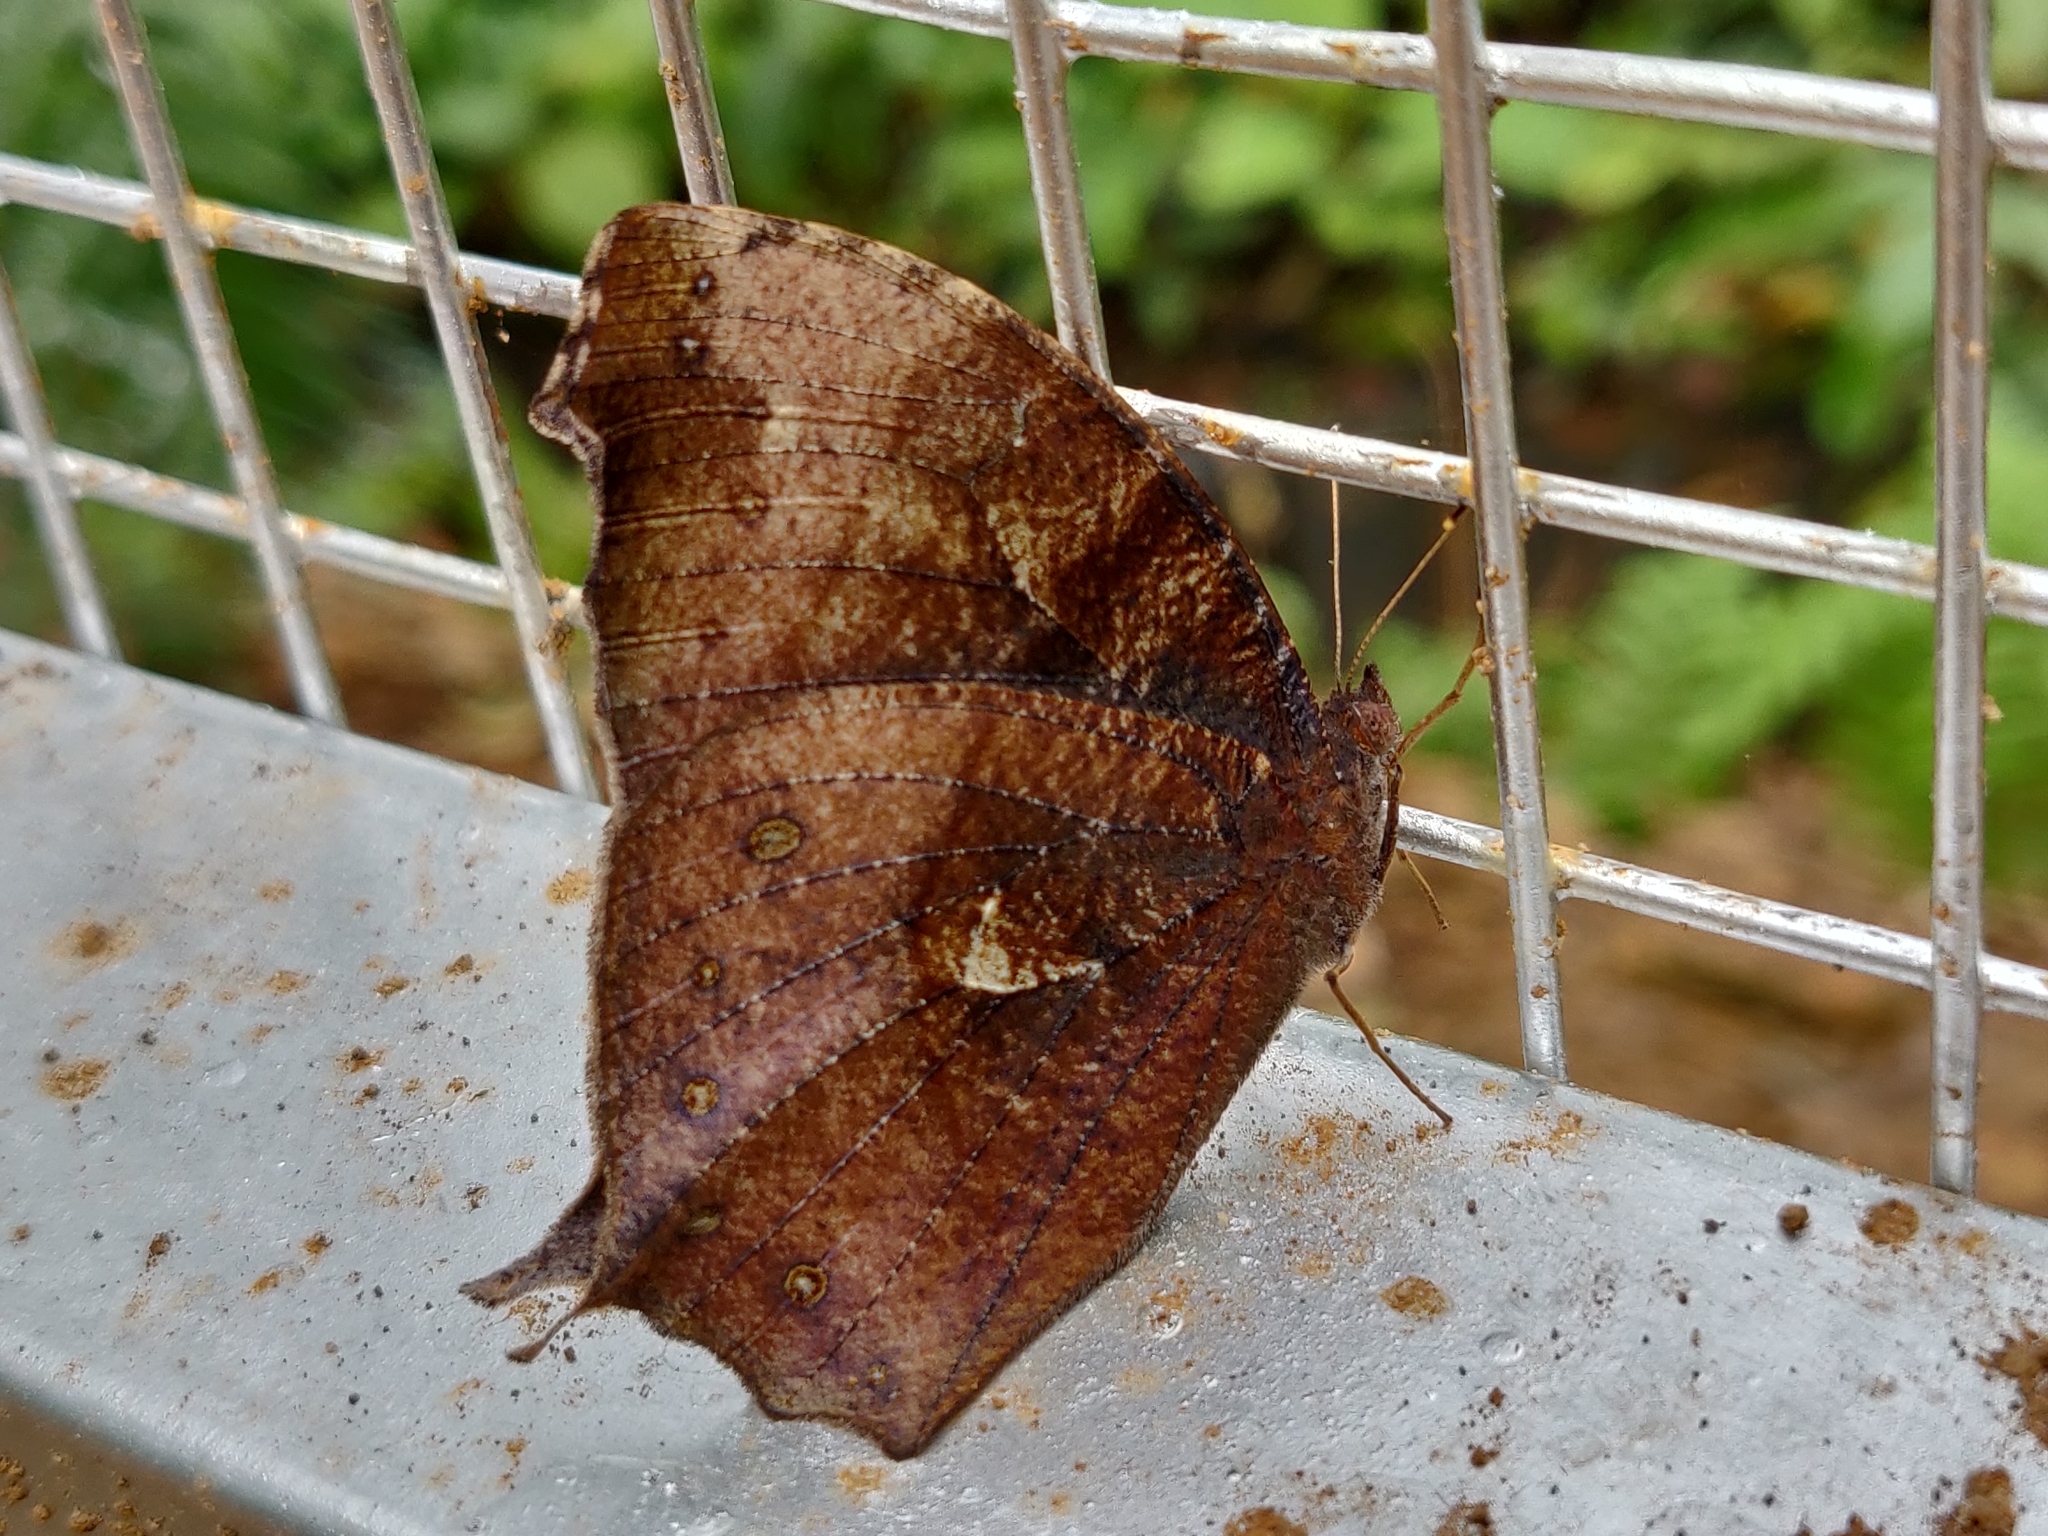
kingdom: Animalia
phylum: Arthropoda
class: Insecta
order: Lepidoptera
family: Nymphalidae
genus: Melanitis
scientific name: Melanitis phedima
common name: Dark evening brown
